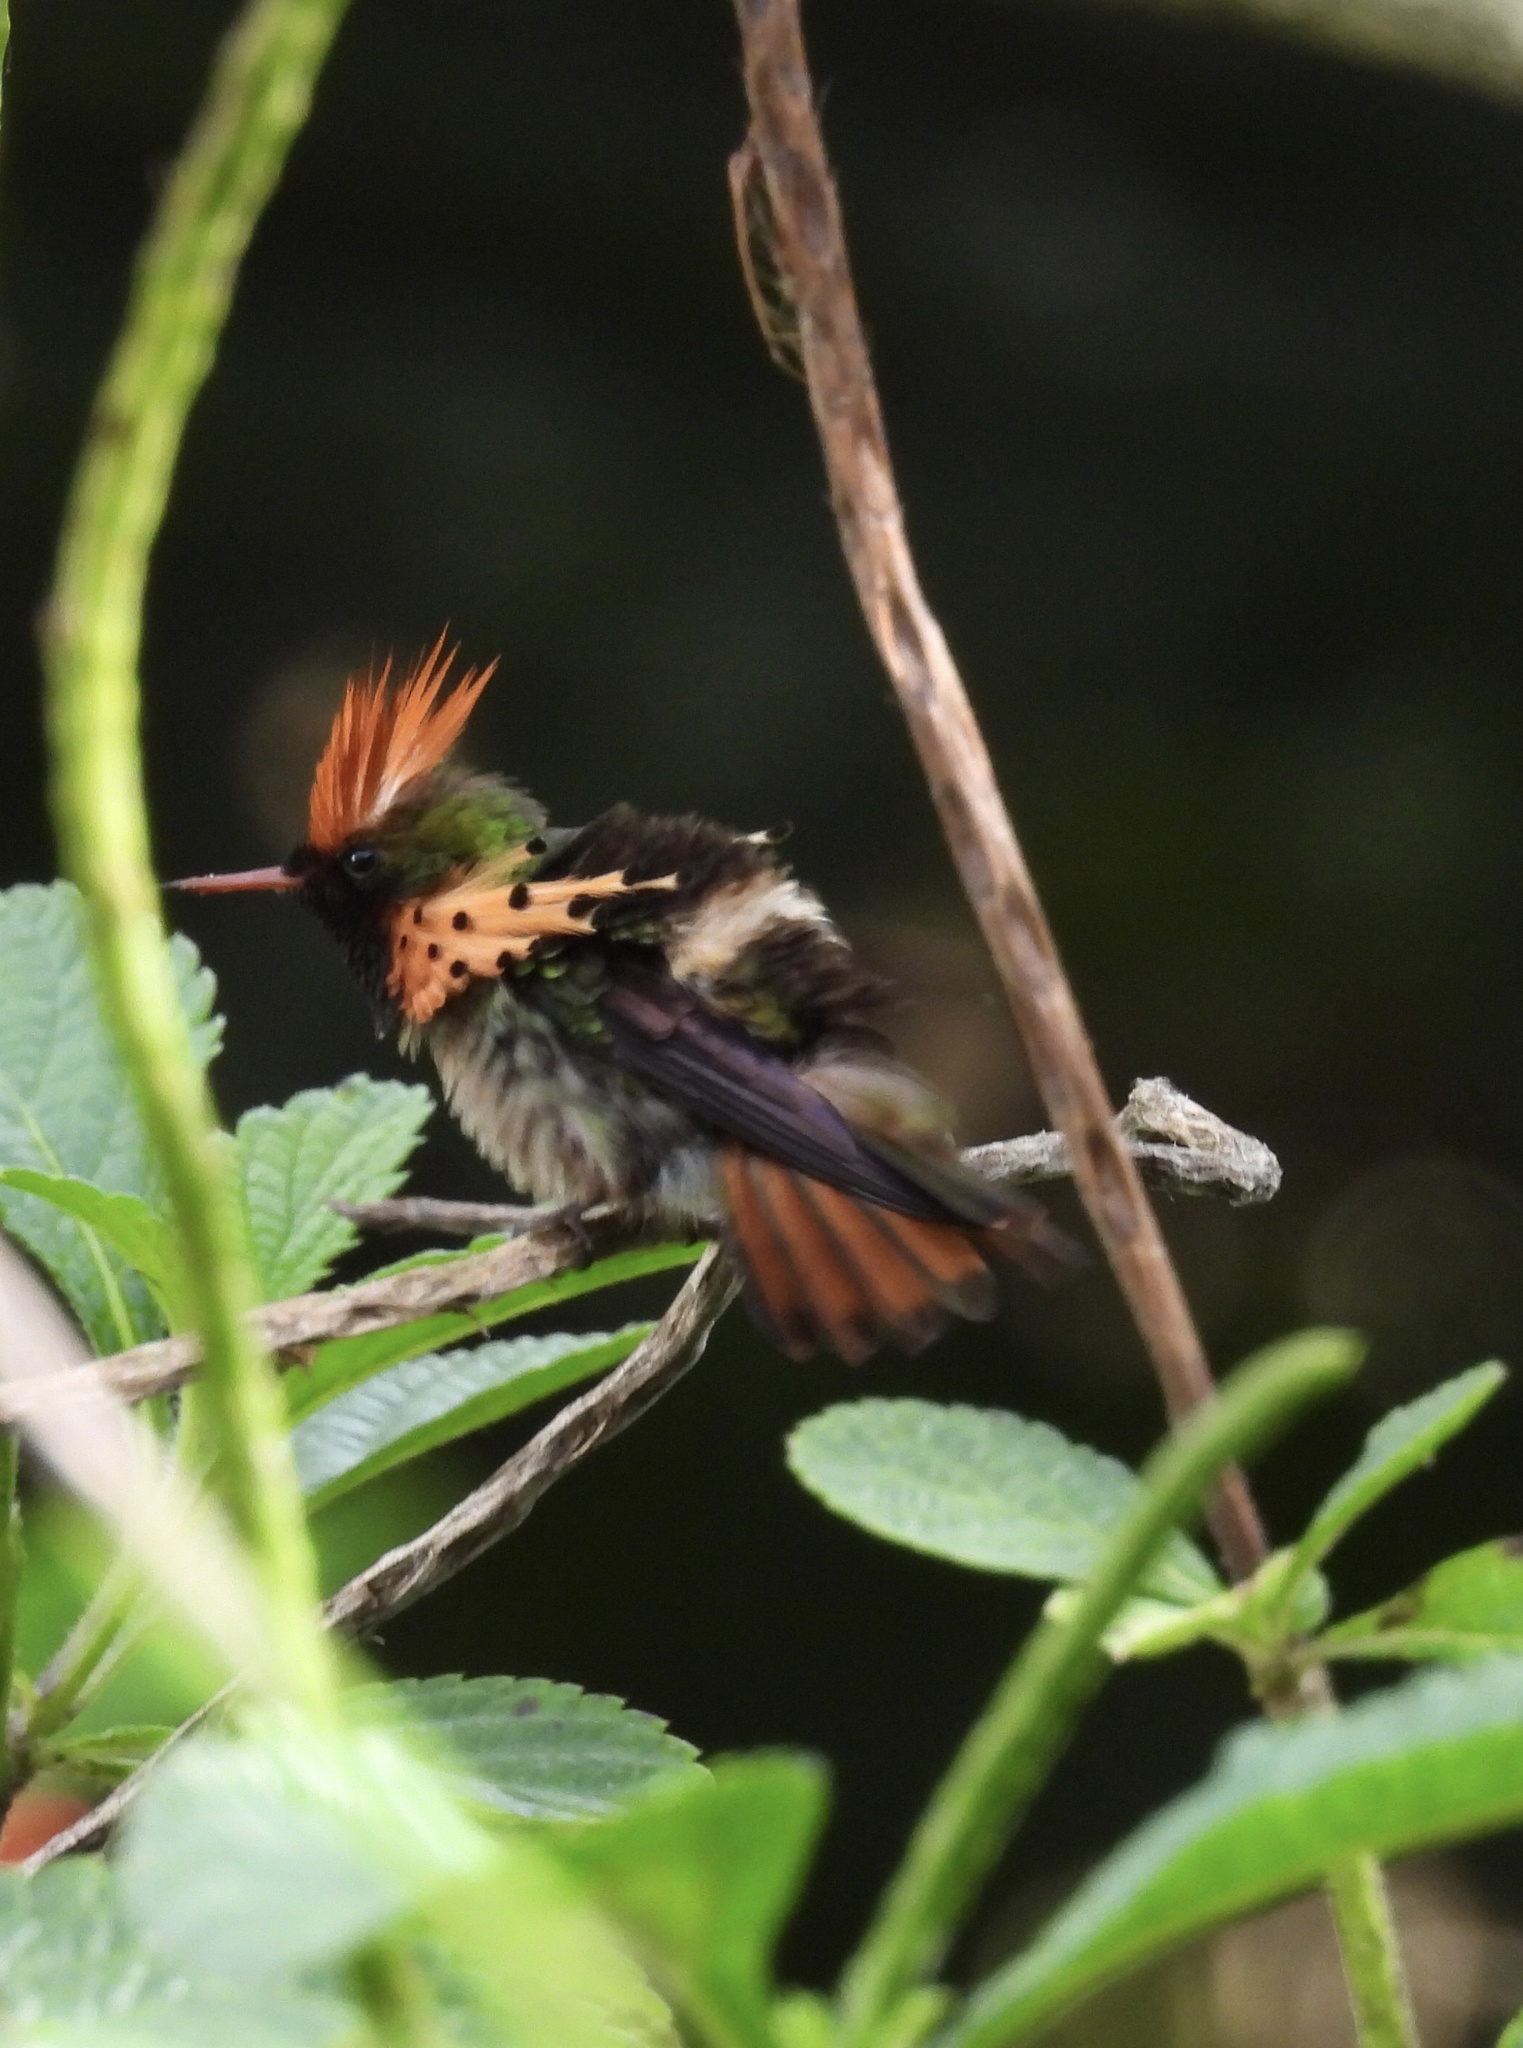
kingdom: Animalia
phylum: Chordata
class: Aves
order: Apodiformes
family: Trochilidae
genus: Lophornis
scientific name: Lophornis ornatus
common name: Tufted coquette
